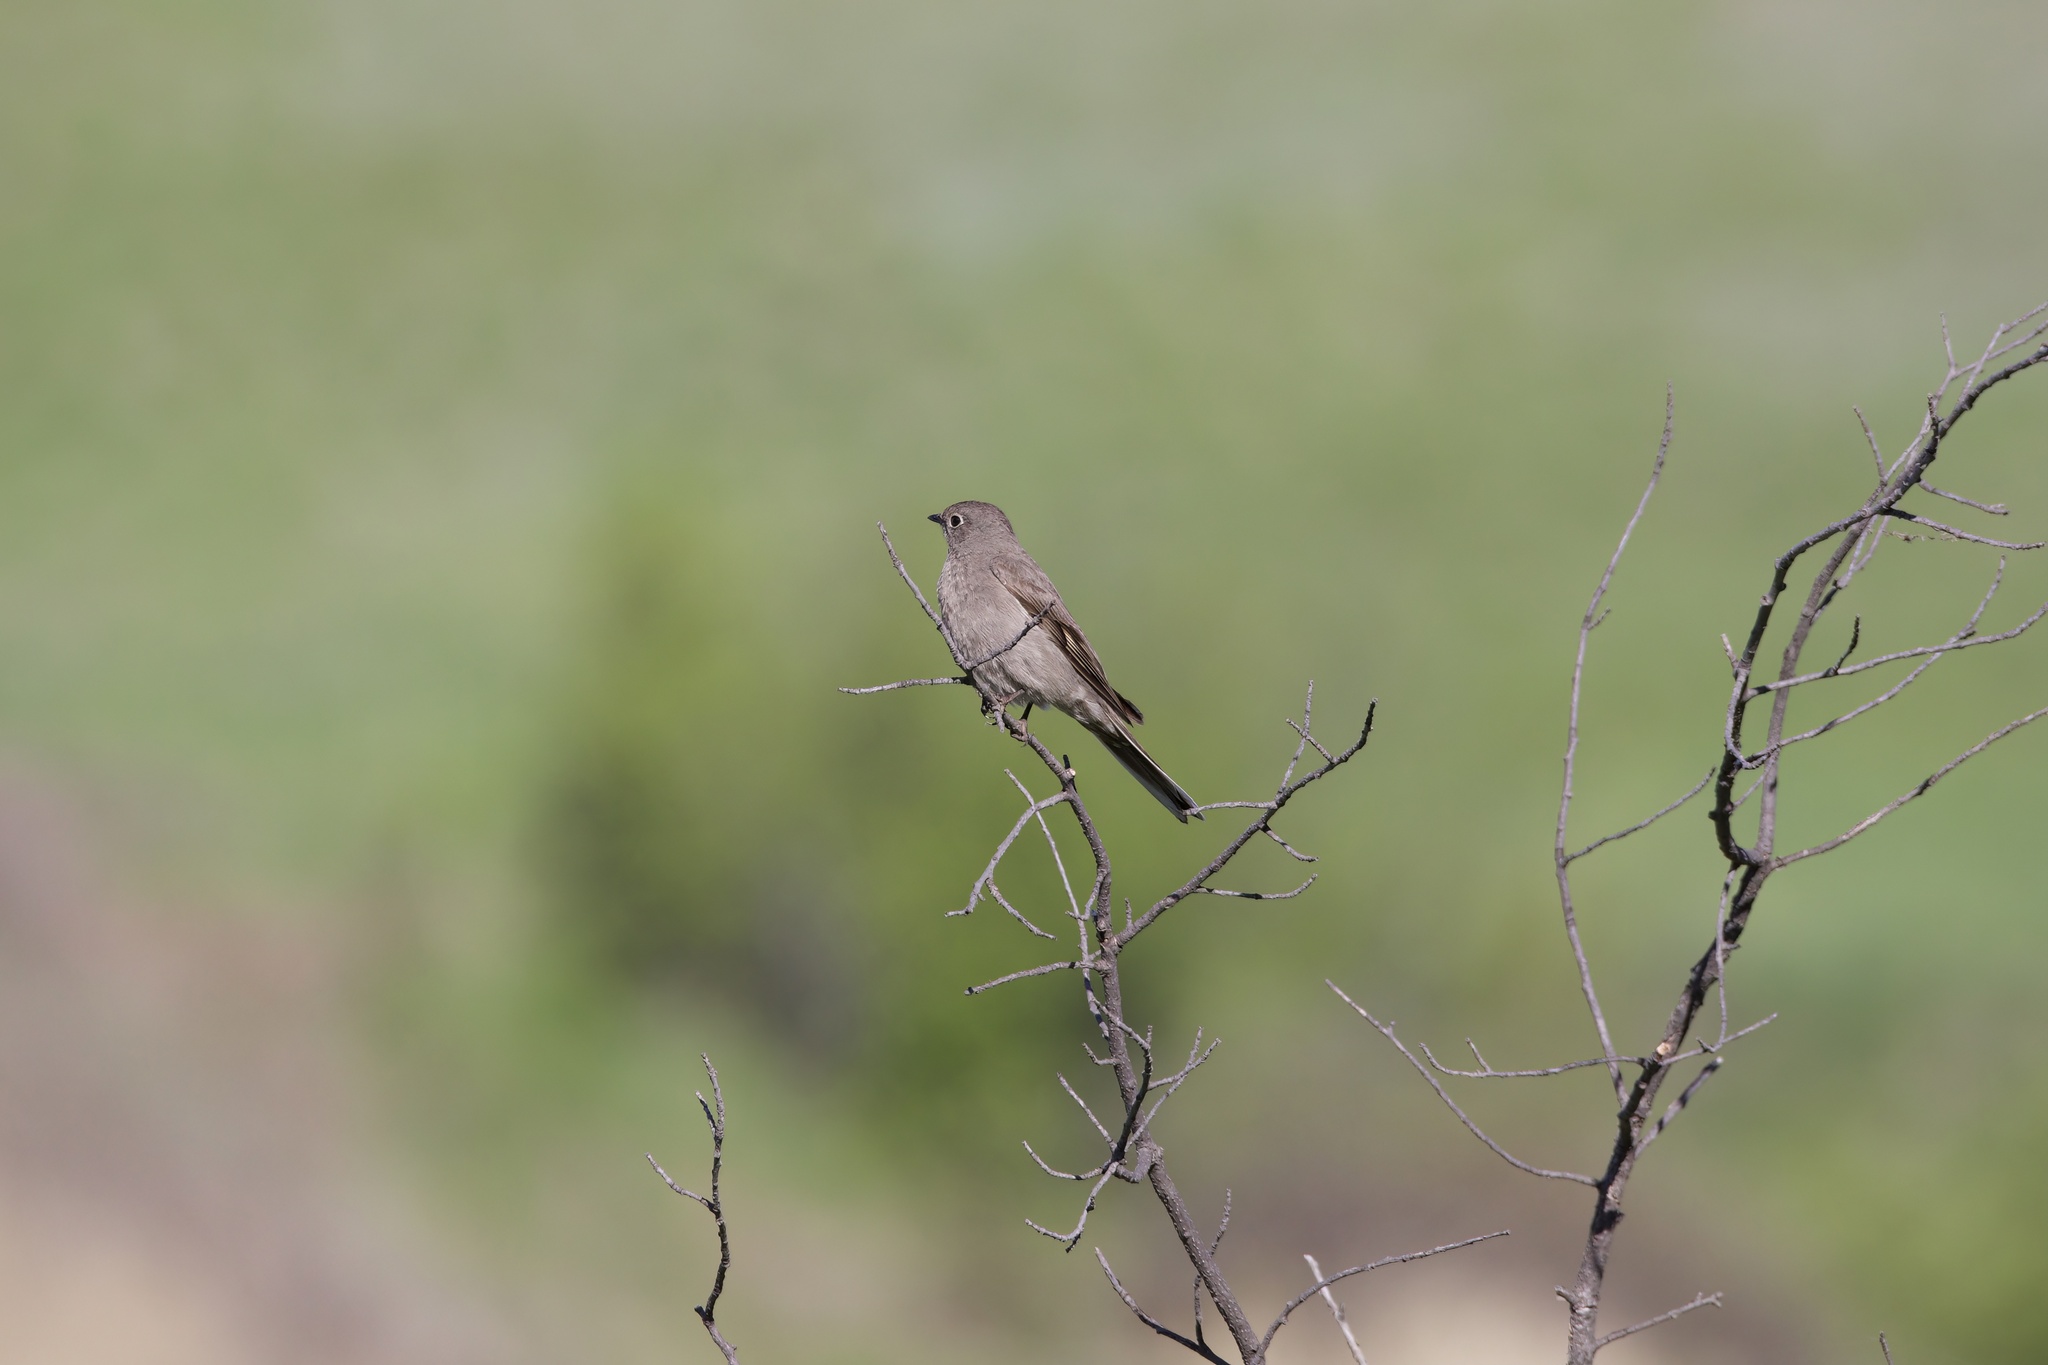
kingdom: Animalia
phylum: Chordata
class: Aves
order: Passeriformes
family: Turdidae
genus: Myadestes
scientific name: Myadestes townsendi
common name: Townsend's solitaire
